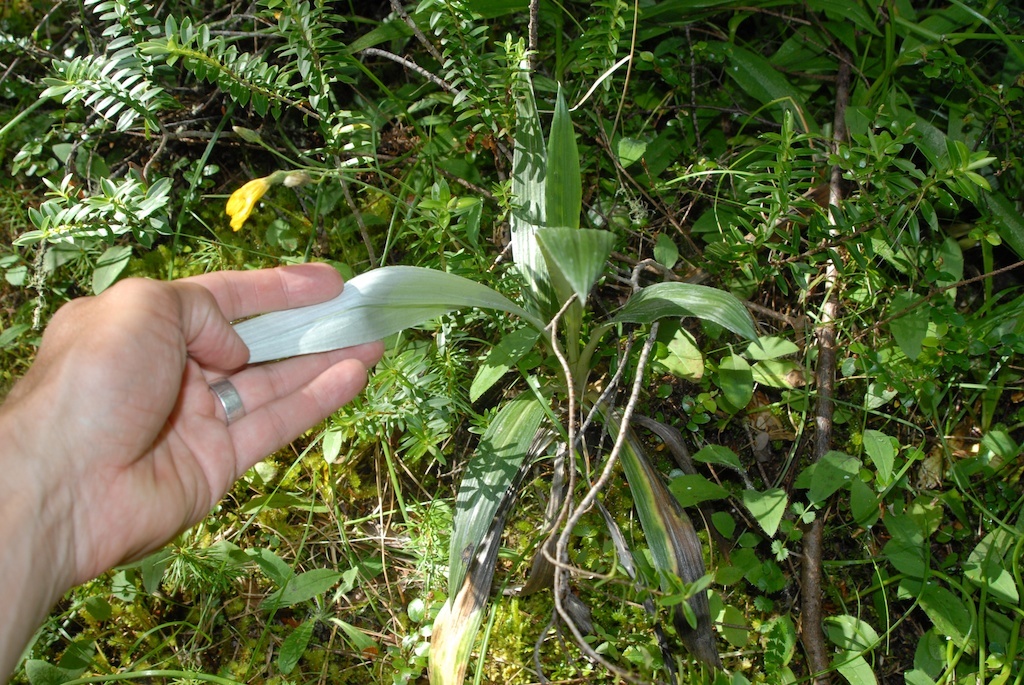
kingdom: Plantae
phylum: Tracheophyta
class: Magnoliopsida
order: Asterales
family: Asteraceae
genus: Celmisia
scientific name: Celmisia monroi
